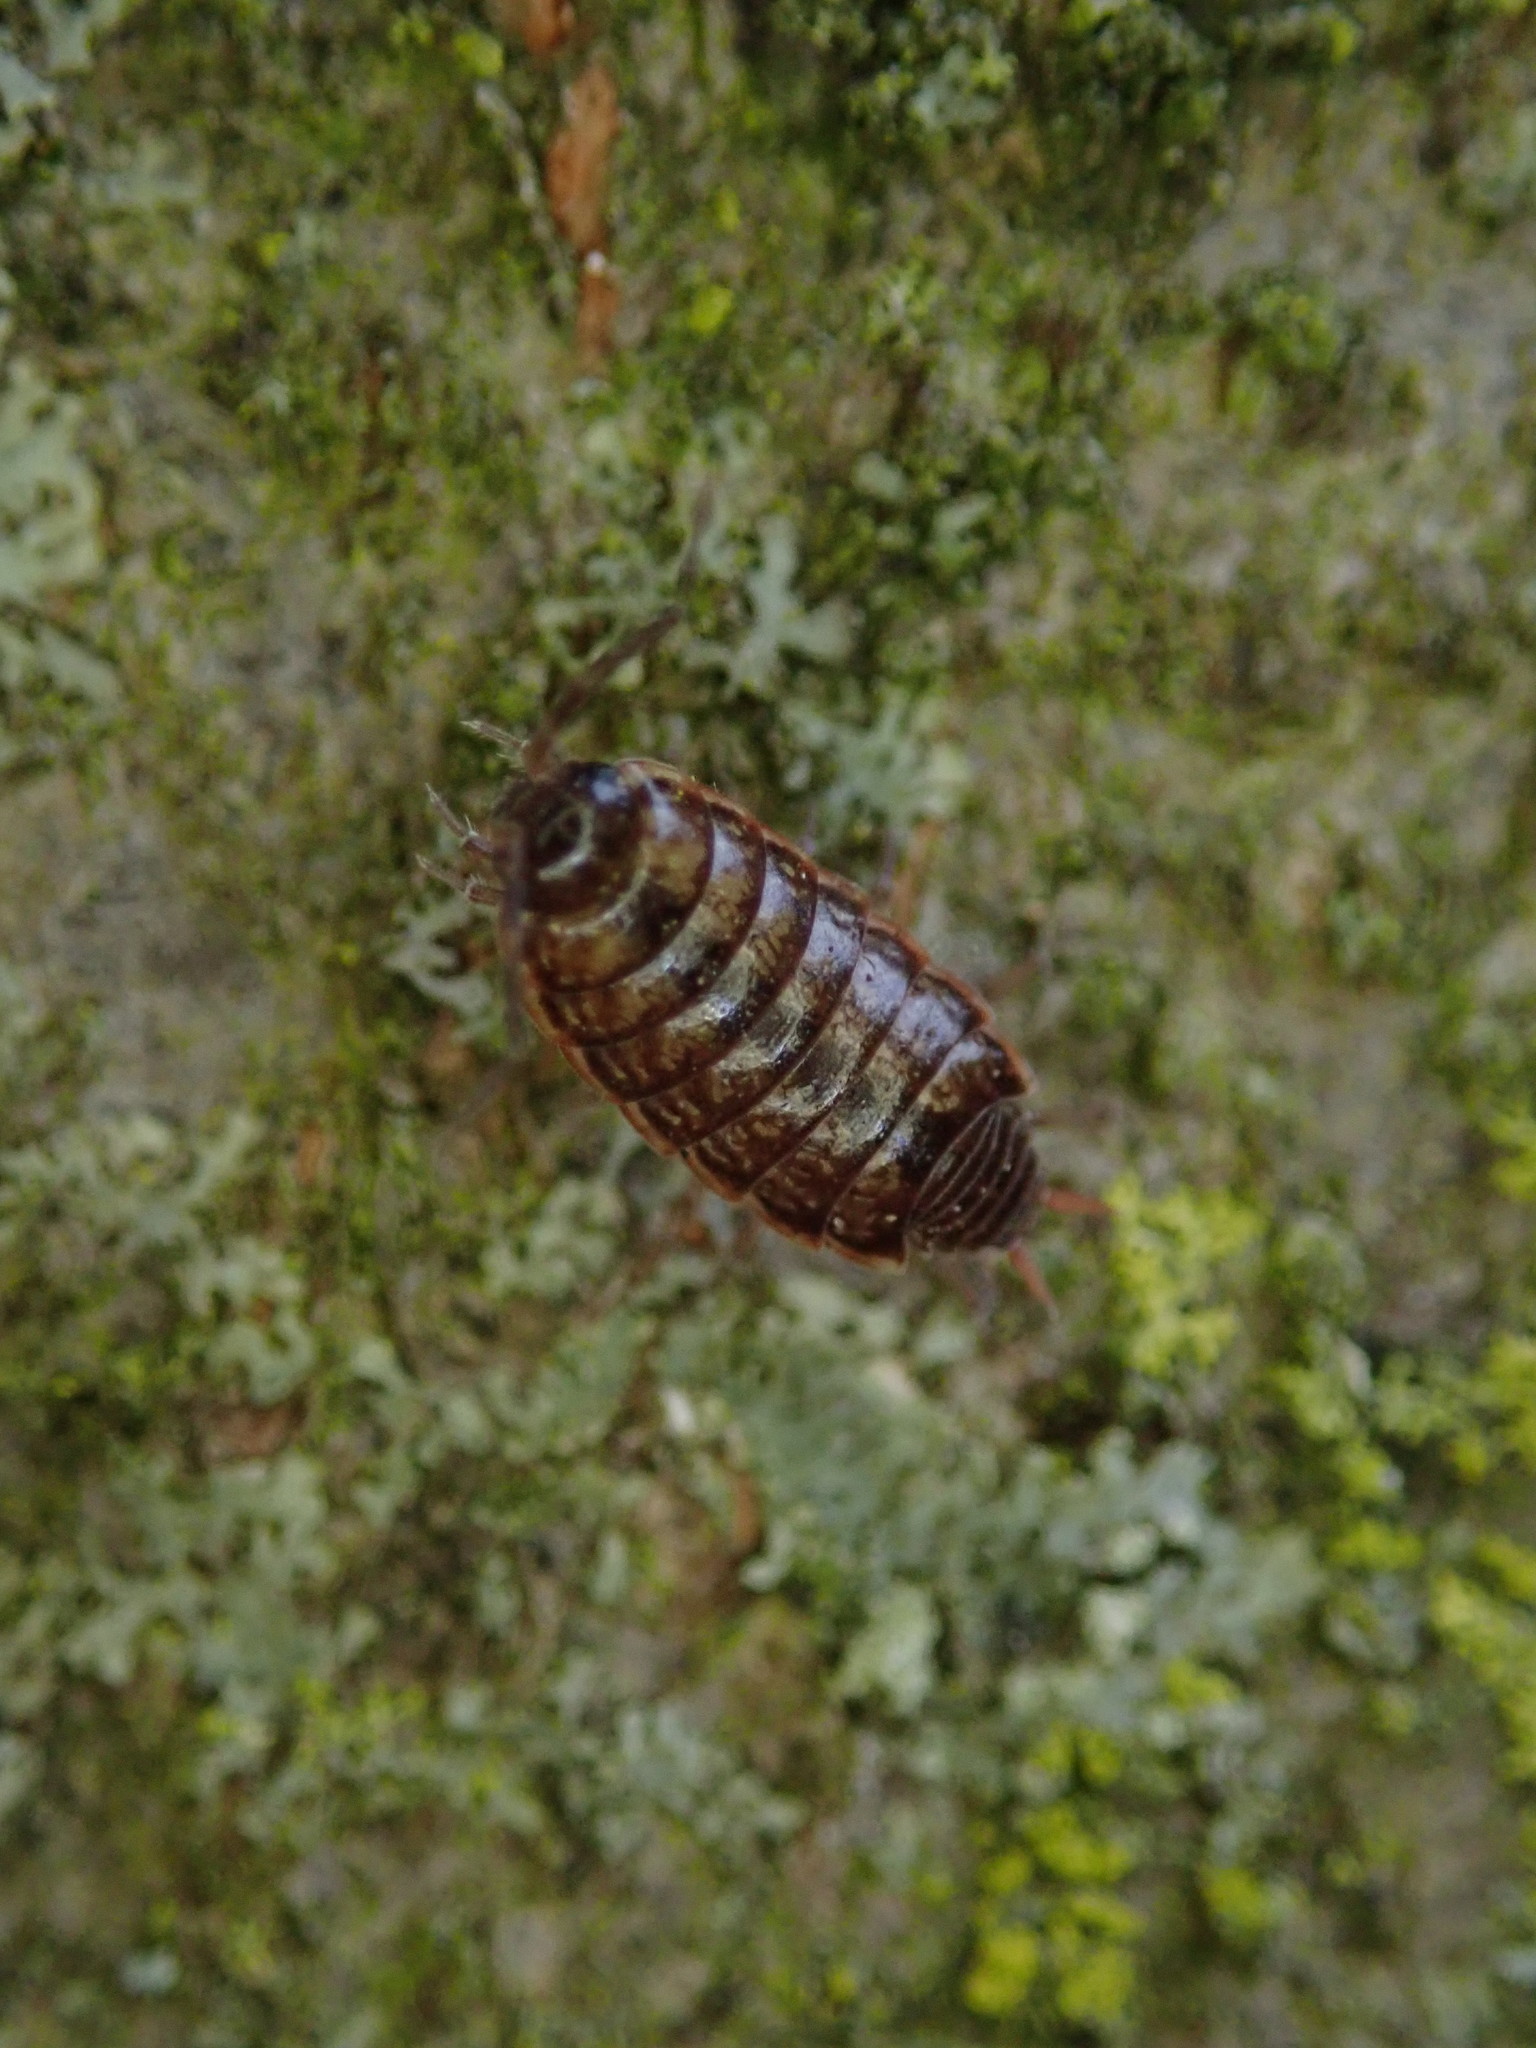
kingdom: Animalia
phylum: Arthropoda
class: Malacostraca
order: Isopoda
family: Philosciidae
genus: Philoscia
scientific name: Philoscia muscorum
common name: Common striped woodlouse
